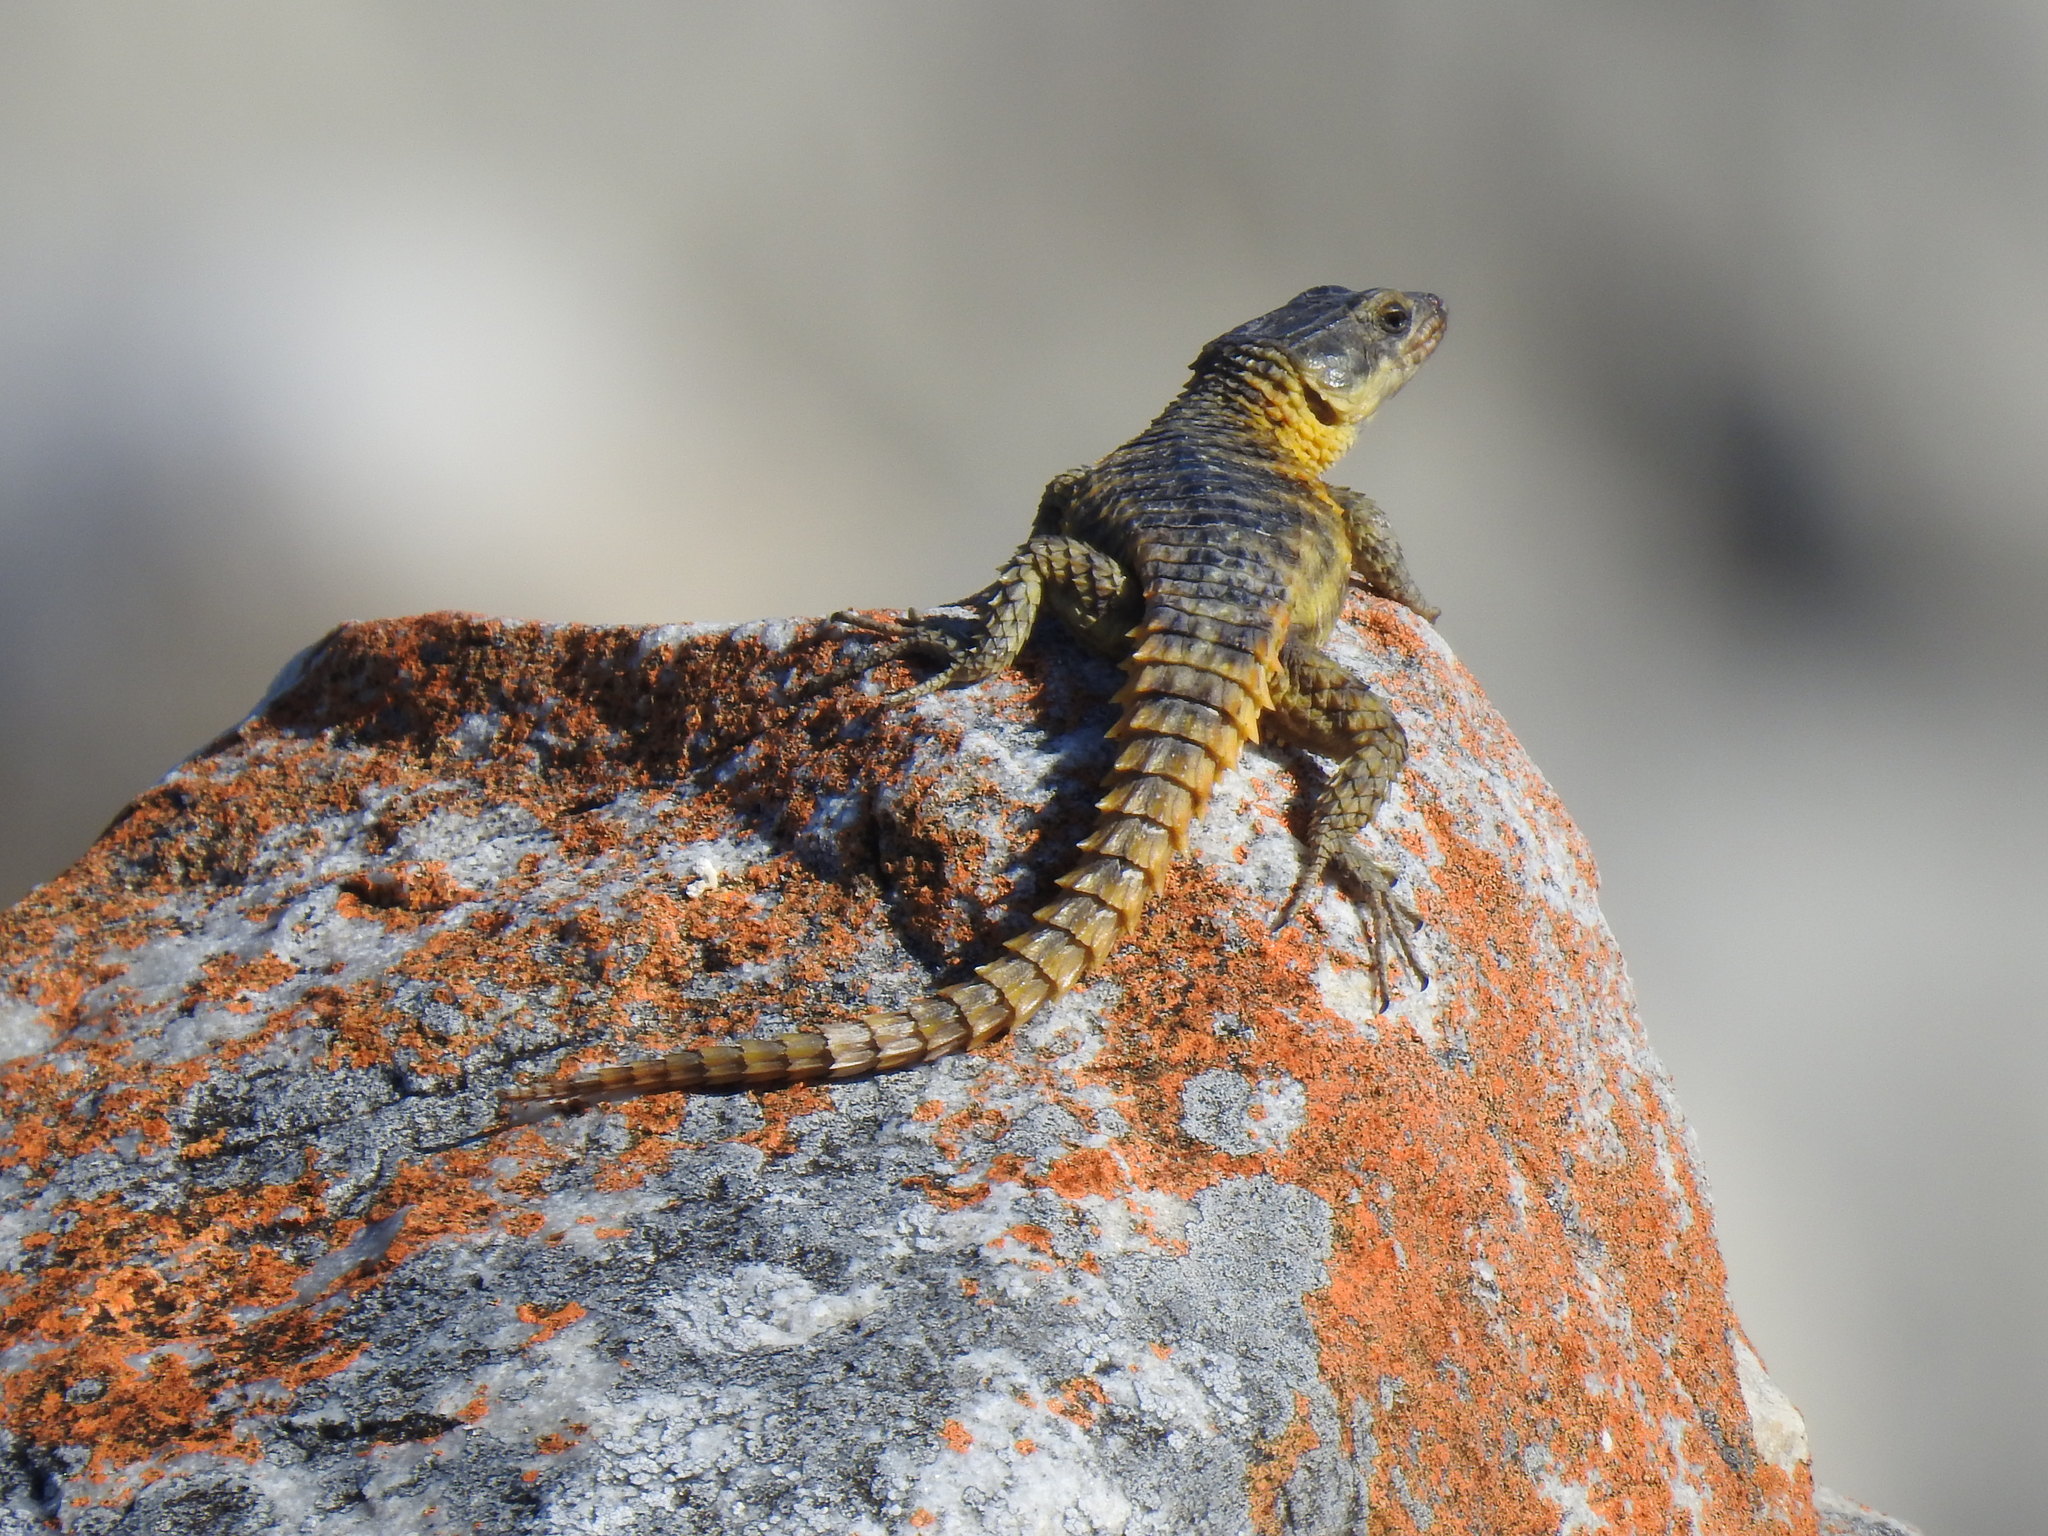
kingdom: Animalia
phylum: Chordata
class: Squamata
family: Cordylidae
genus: Cordylus
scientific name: Cordylus cordylus
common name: Cape girdled lizard
